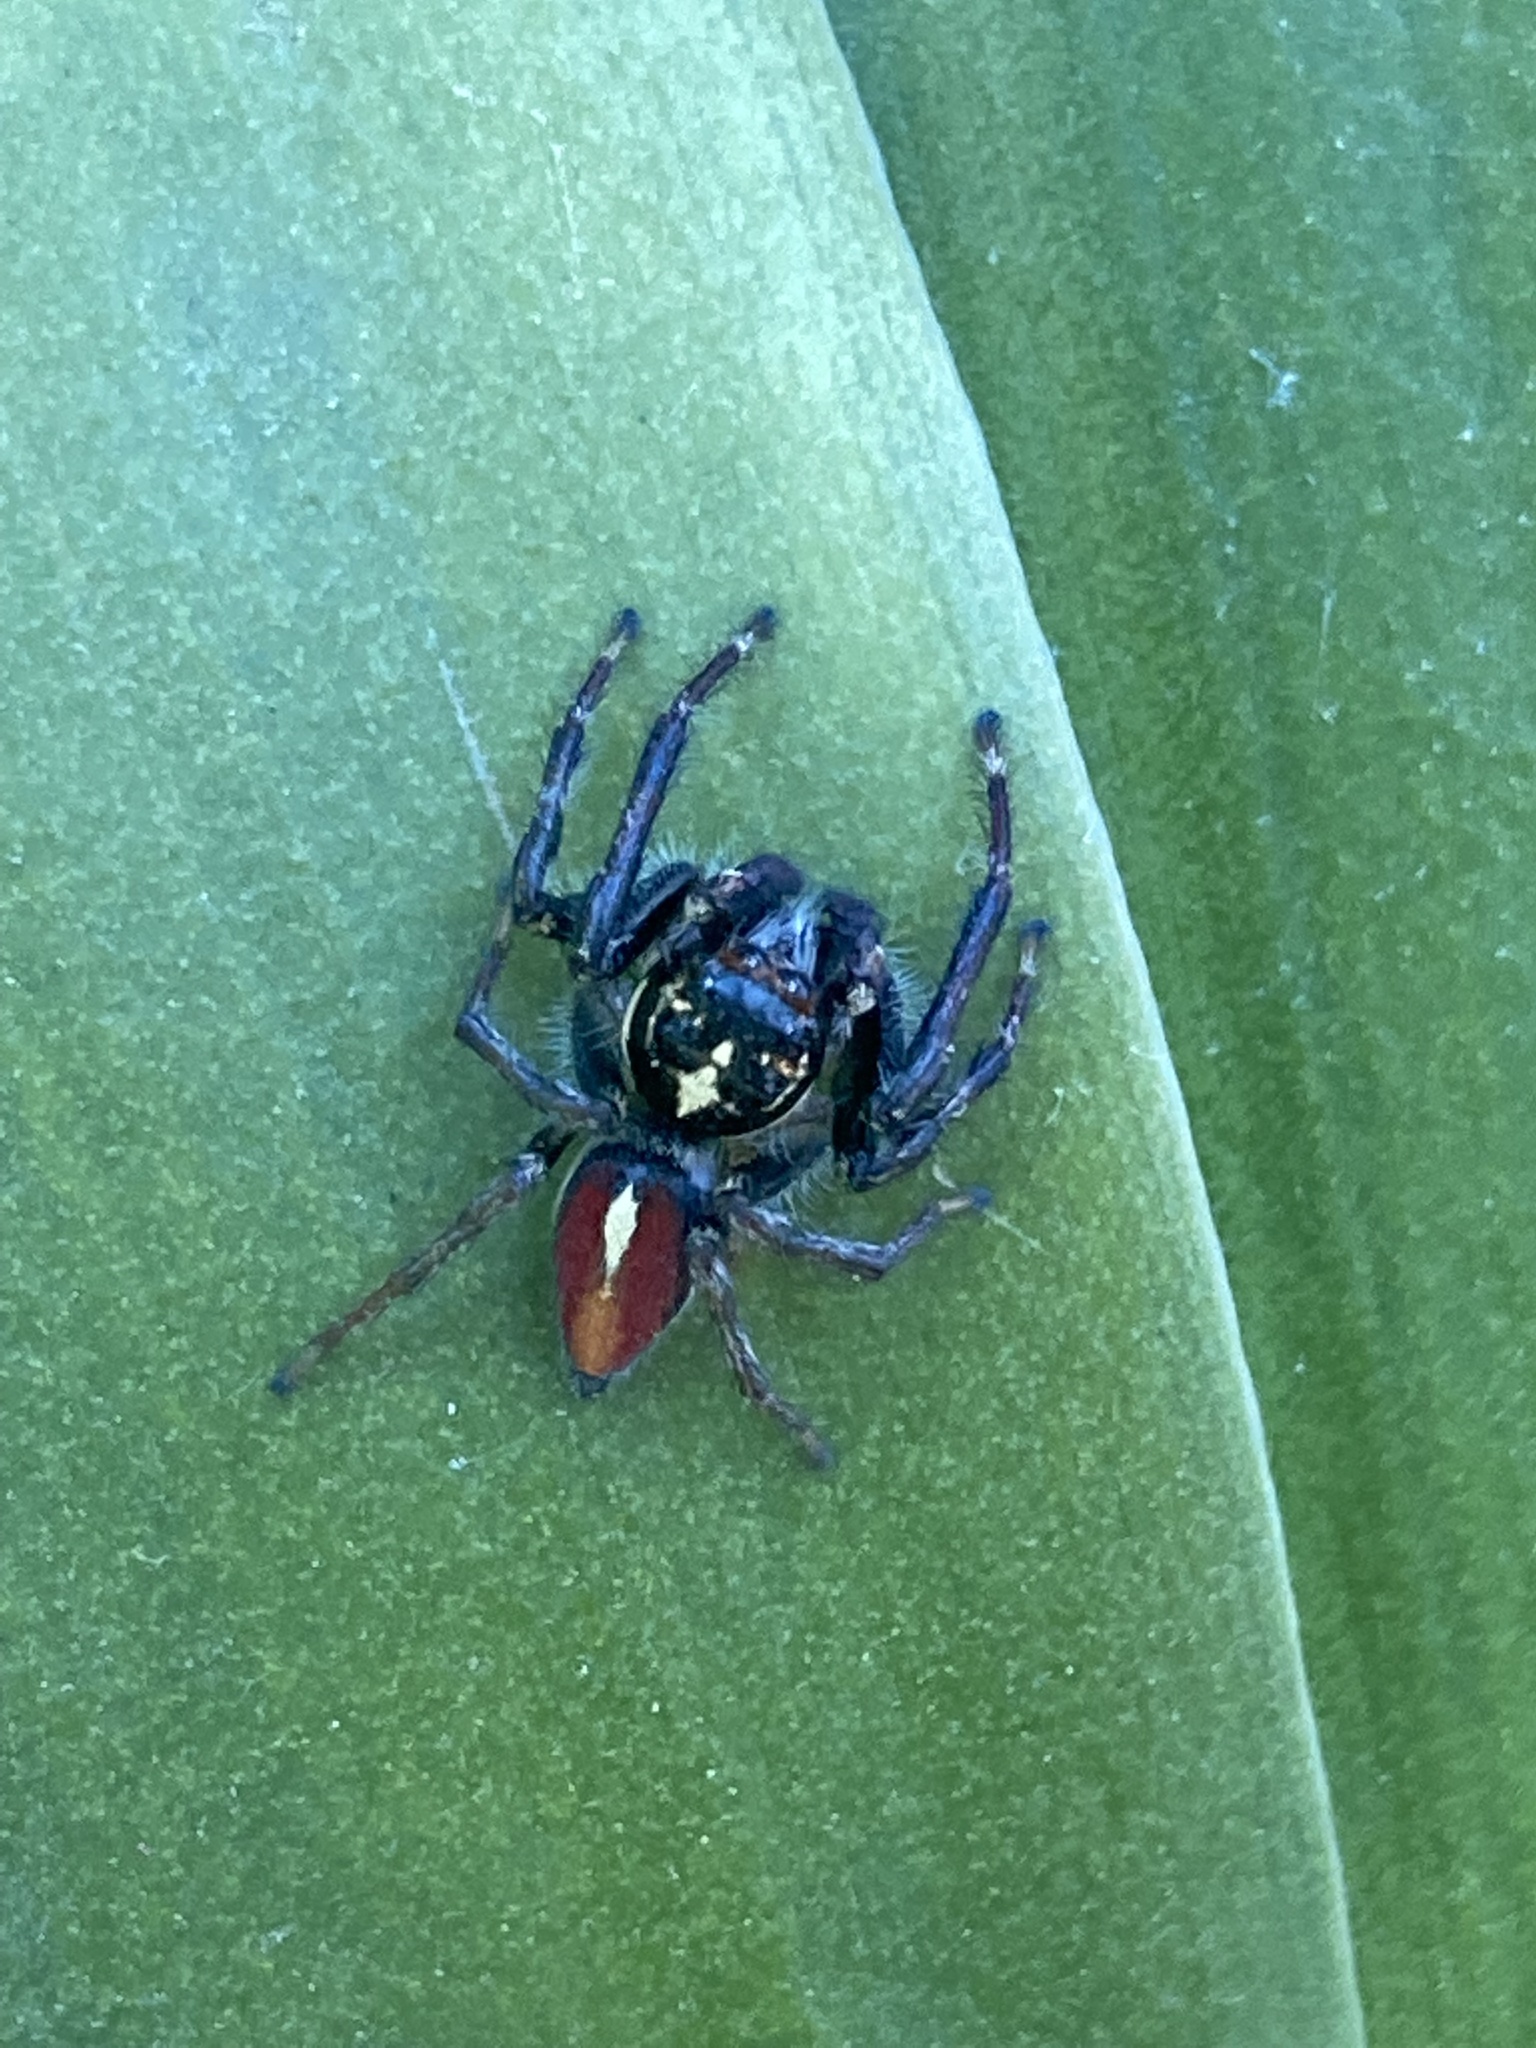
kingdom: Animalia
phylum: Arthropoda
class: Arachnida
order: Araneae
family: Salticidae
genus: Frigga
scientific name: Frigga quintensis
